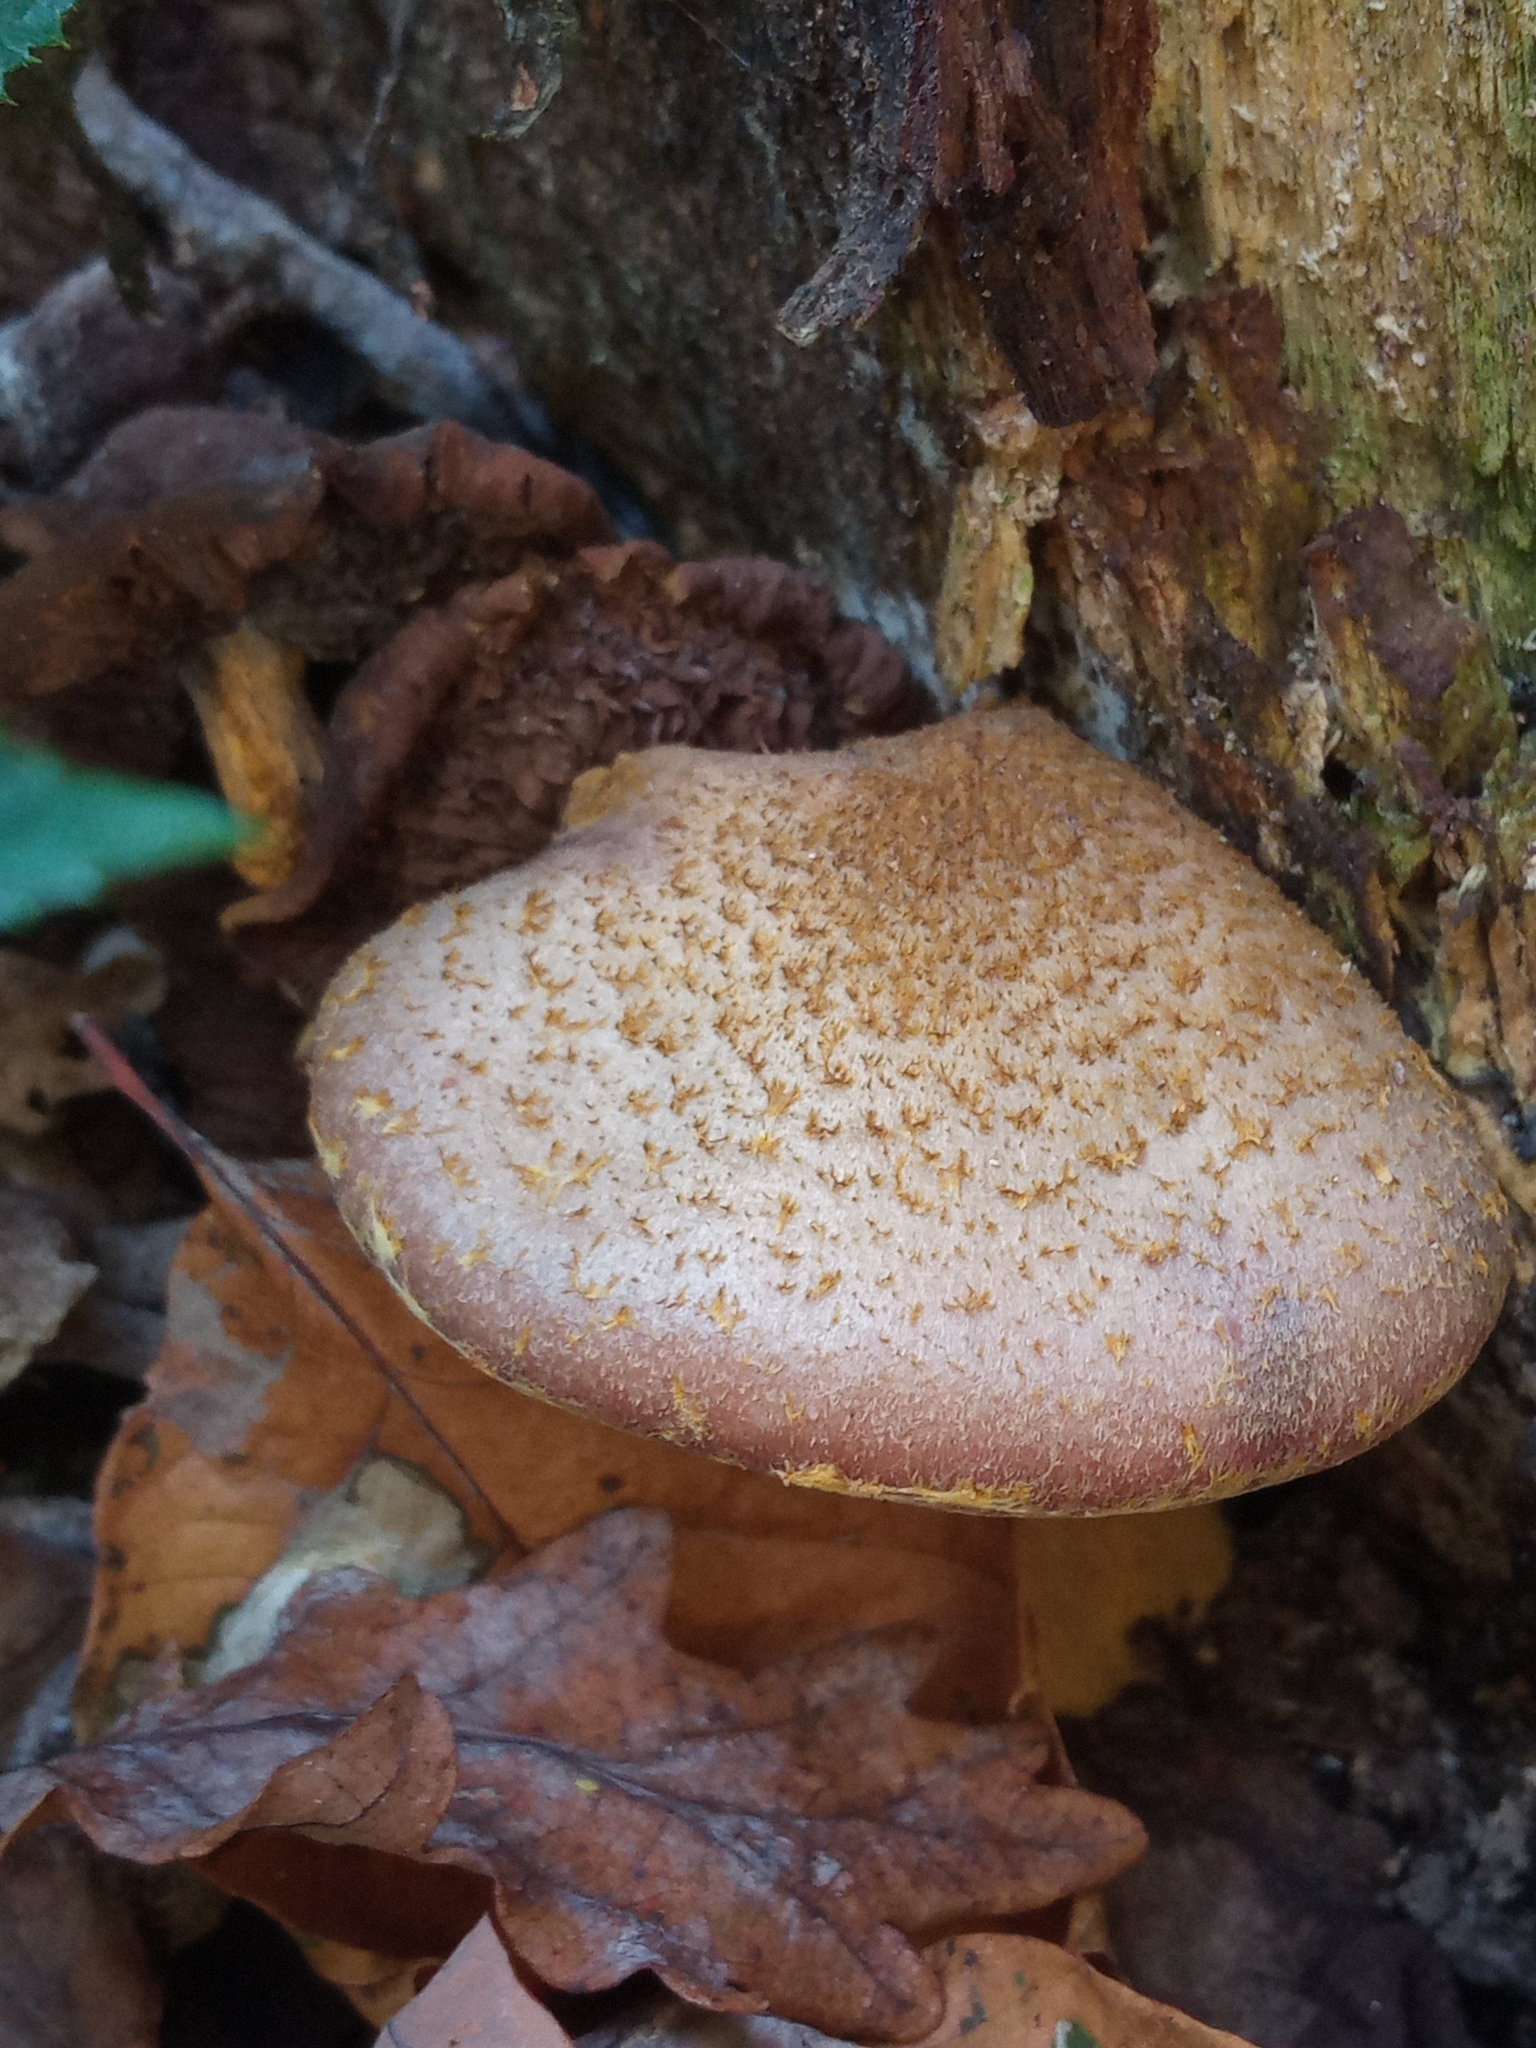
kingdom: Fungi
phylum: Basidiomycota
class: Agaricomycetes
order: Agaricales
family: Physalacriaceae
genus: Armillaria
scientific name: Armillaria gallica
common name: Bulbous honey fungus
